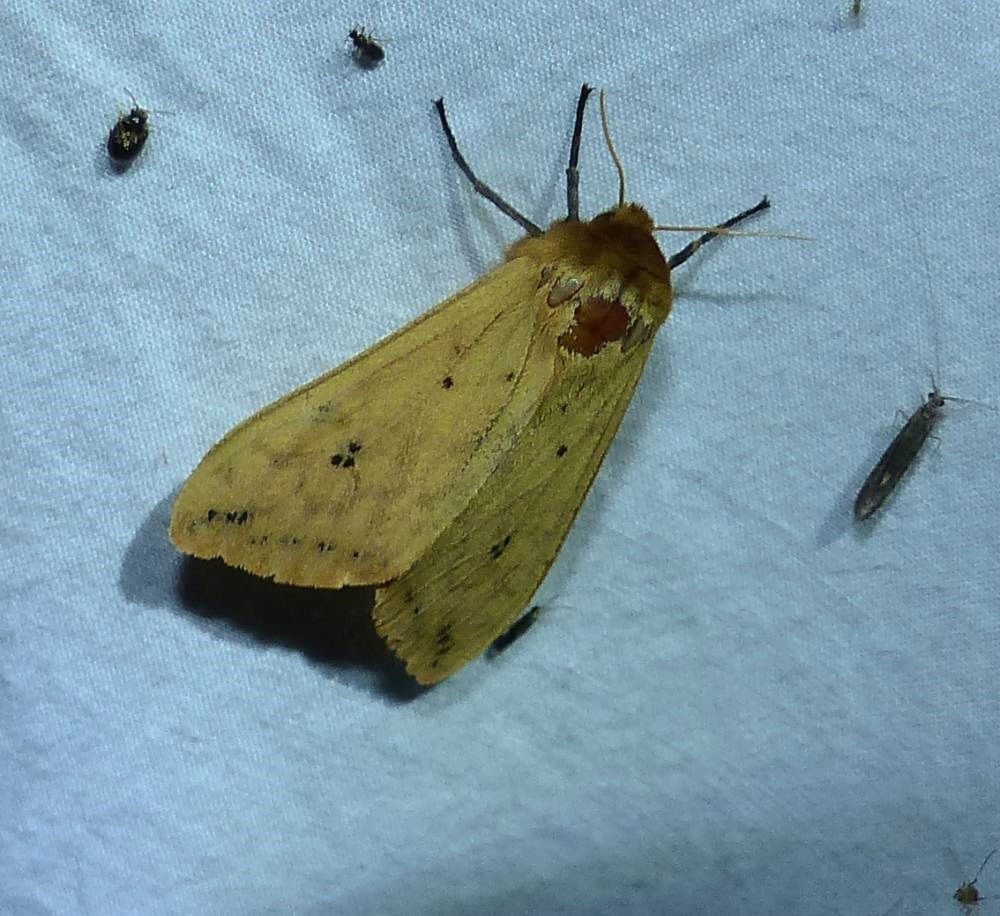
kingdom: Animalia
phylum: Arthropoda
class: Insecta
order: Lepidoptera
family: Erebidae
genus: Pyrrharctia
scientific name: Pyrrharctia isabella
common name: Isabella tiger moth
